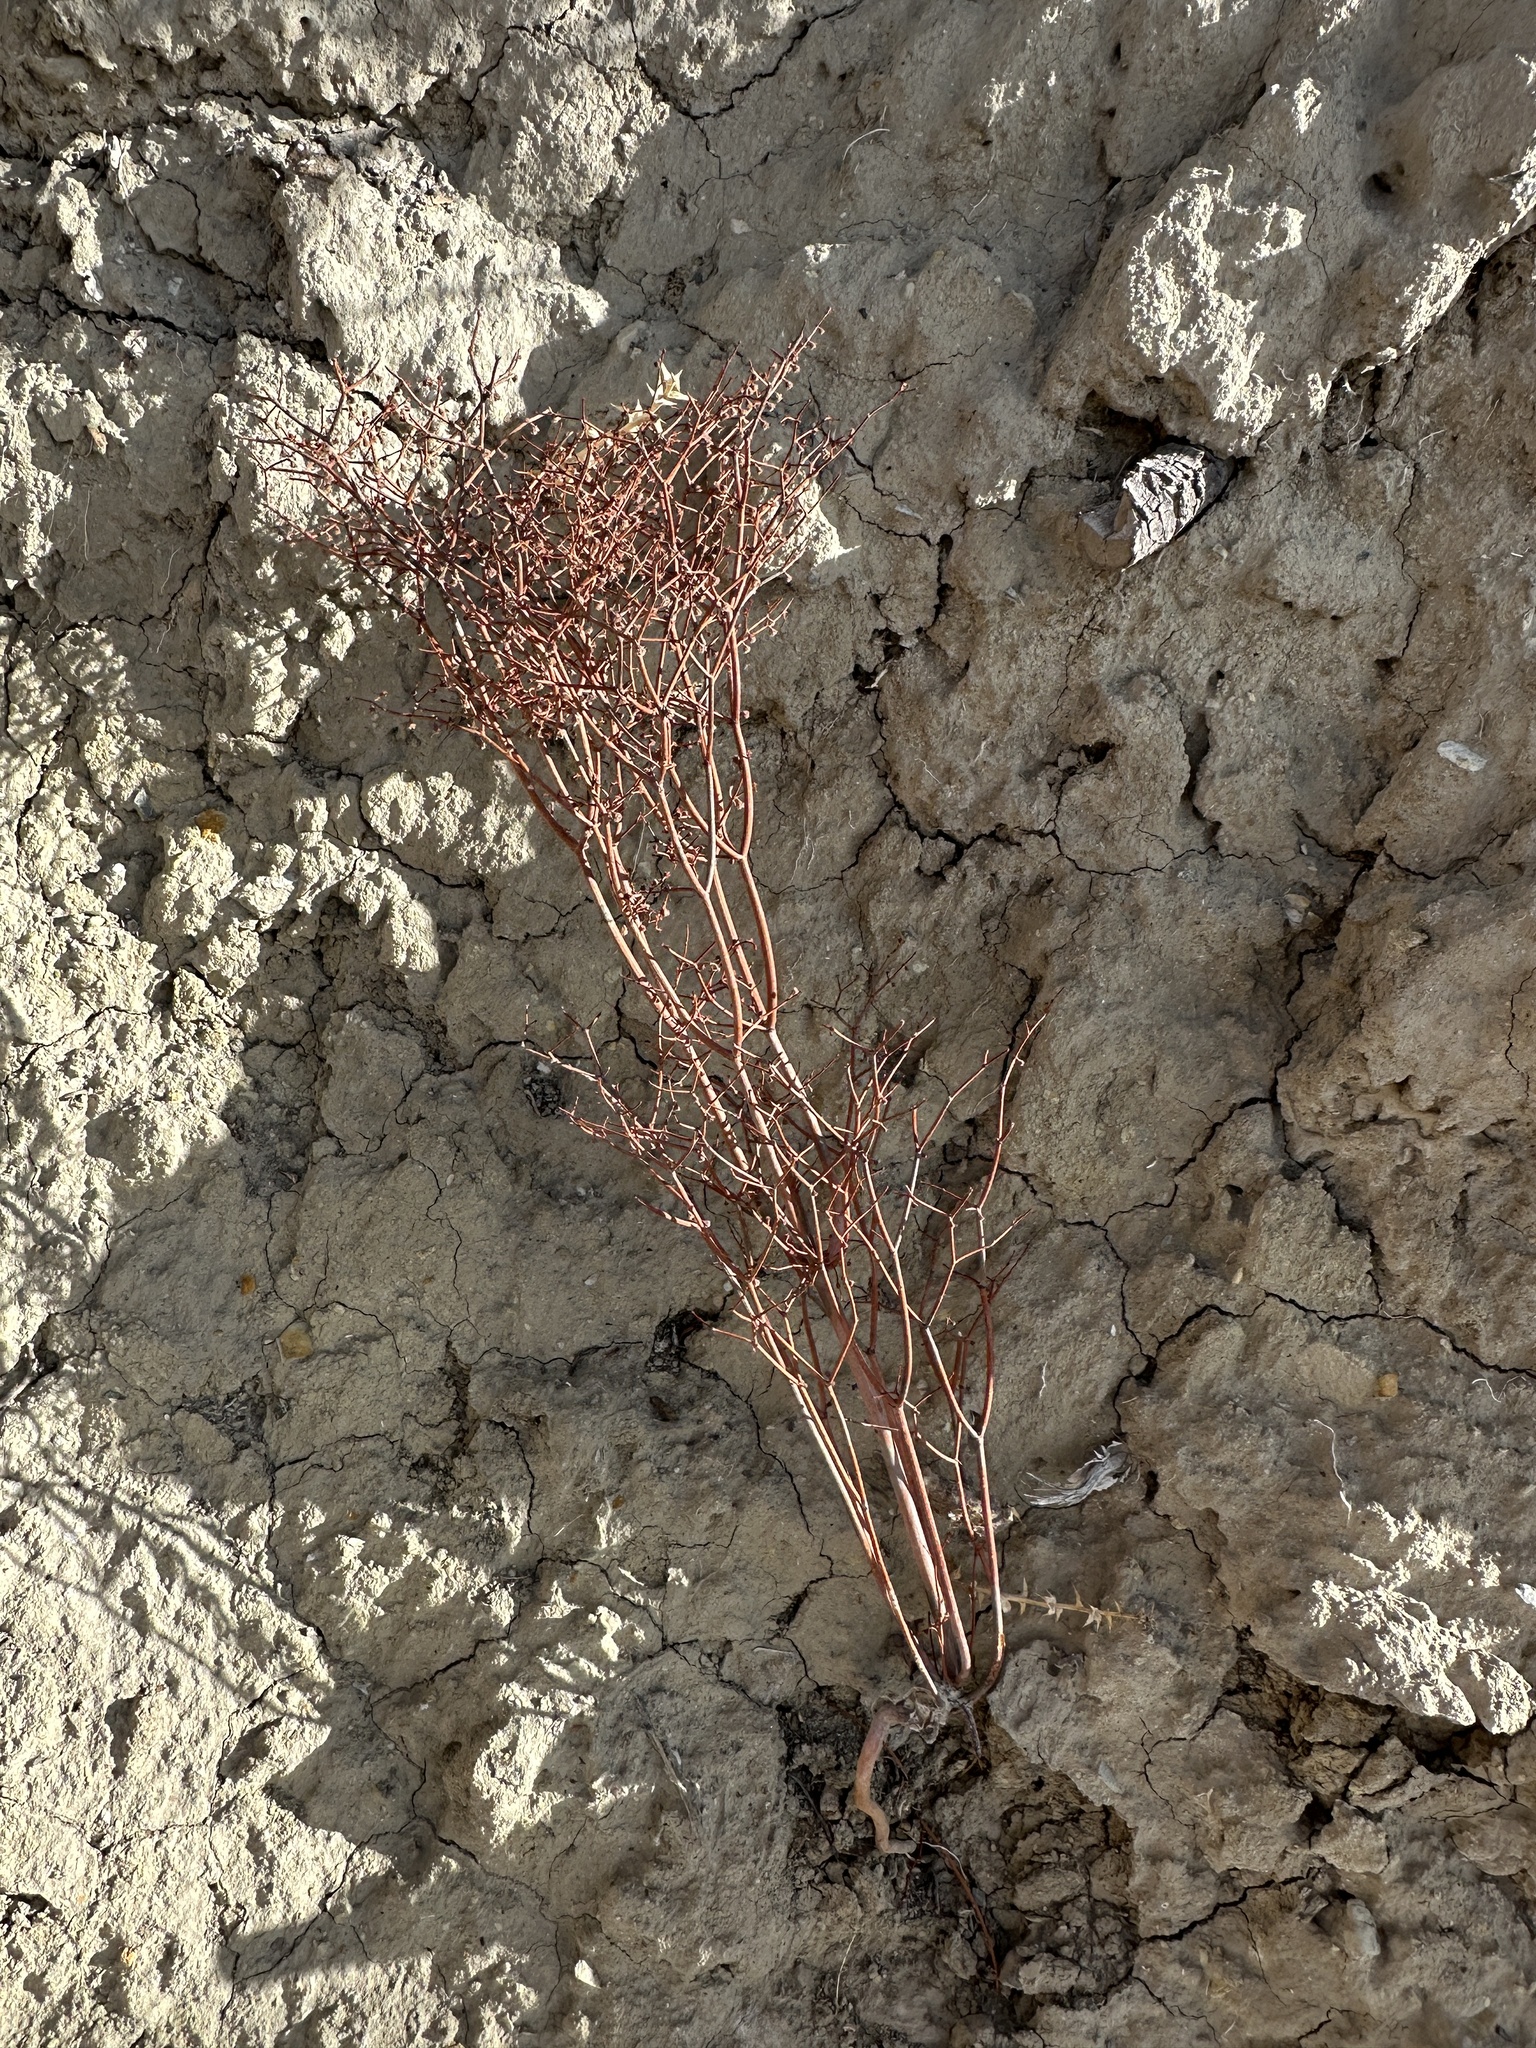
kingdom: Plantae
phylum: Tracheophyta
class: Magnoliopsida
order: Caryophyllales
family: Polygonaceae
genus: Eriogonum
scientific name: Eriogonum rixfordii
